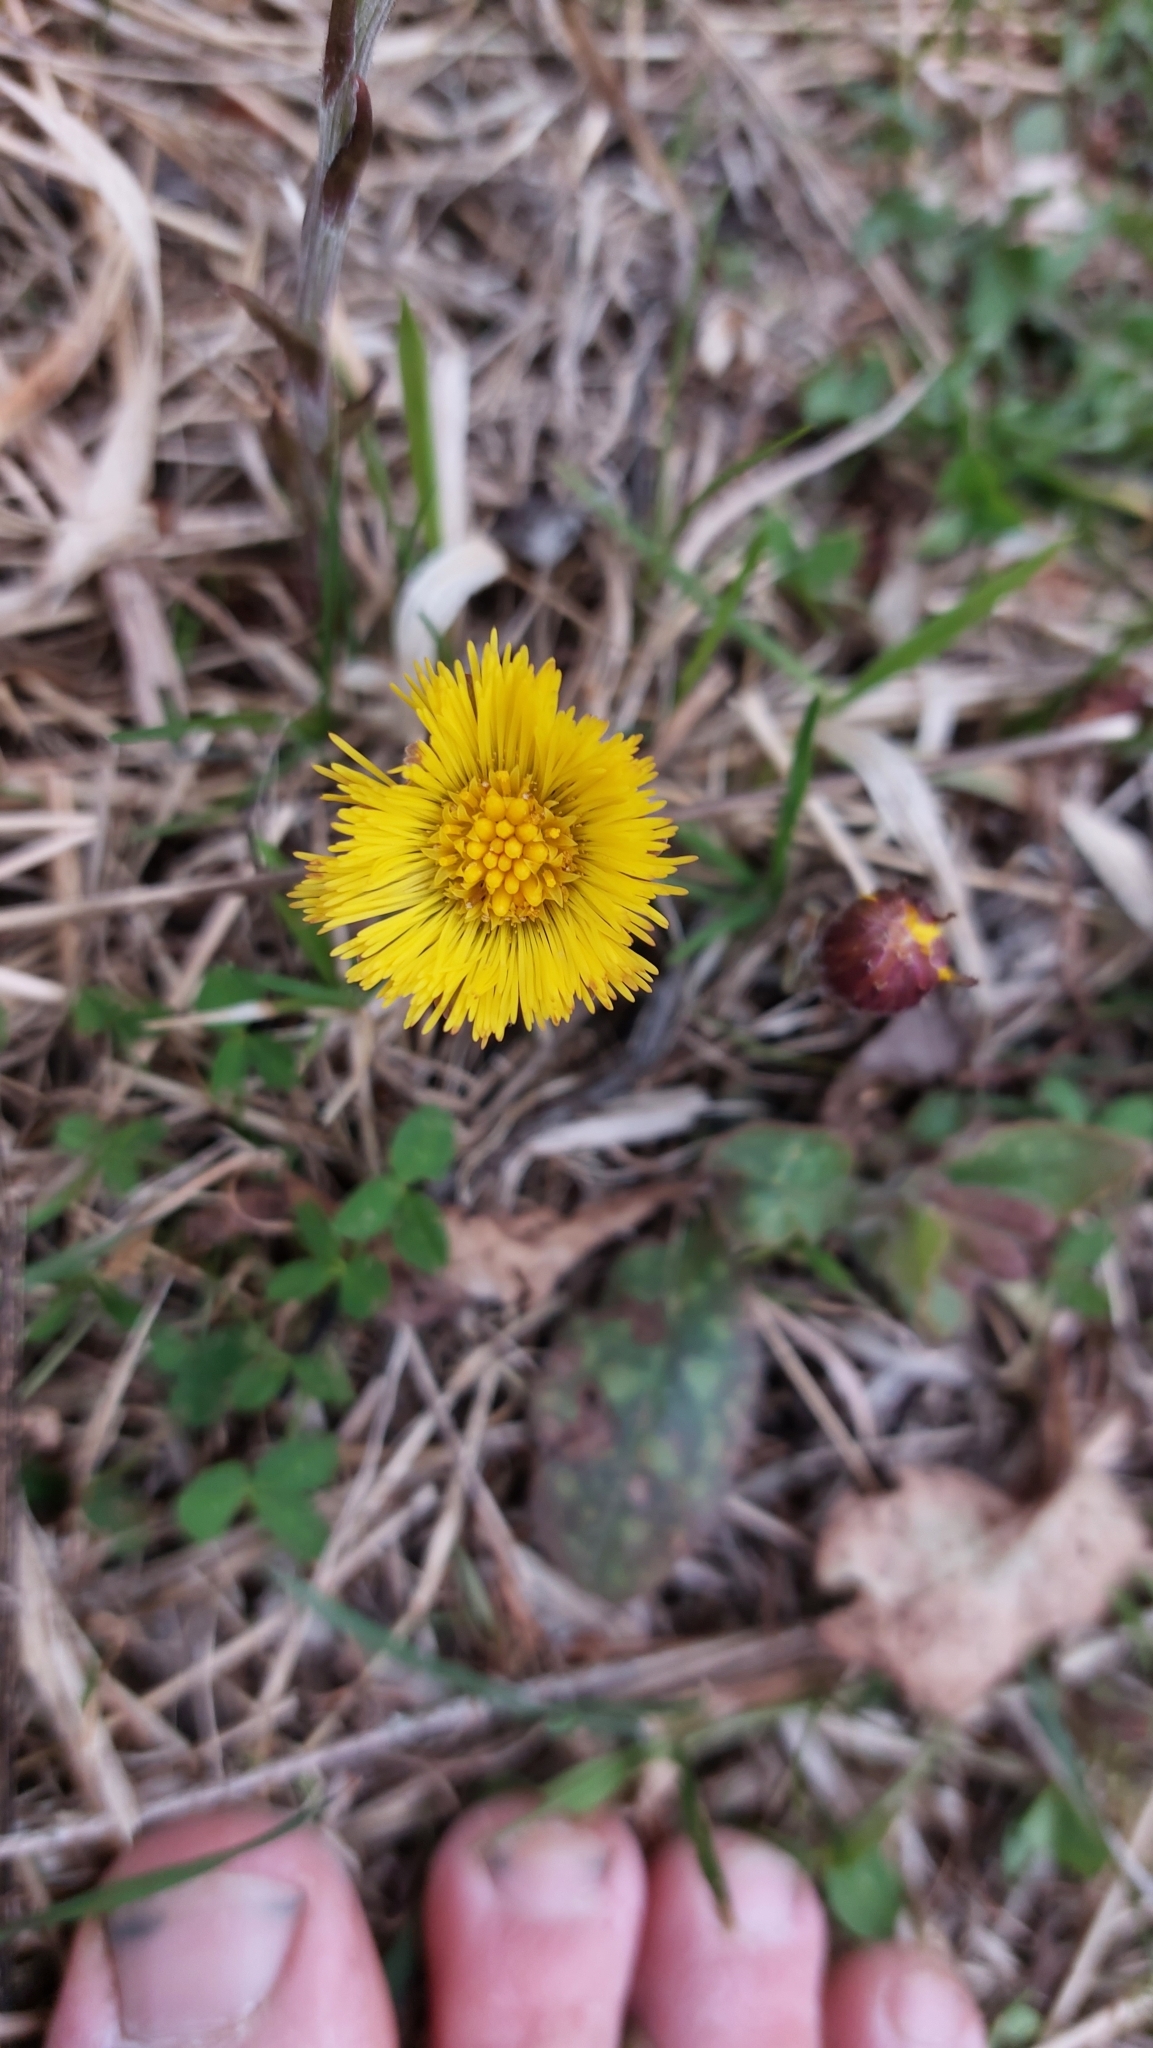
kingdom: Plantae
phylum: Tracheophyta
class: Magnoliopsida
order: Asterales
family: Asteraceae
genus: Tussilago
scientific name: Tussilago farfara
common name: Coltsfoot
